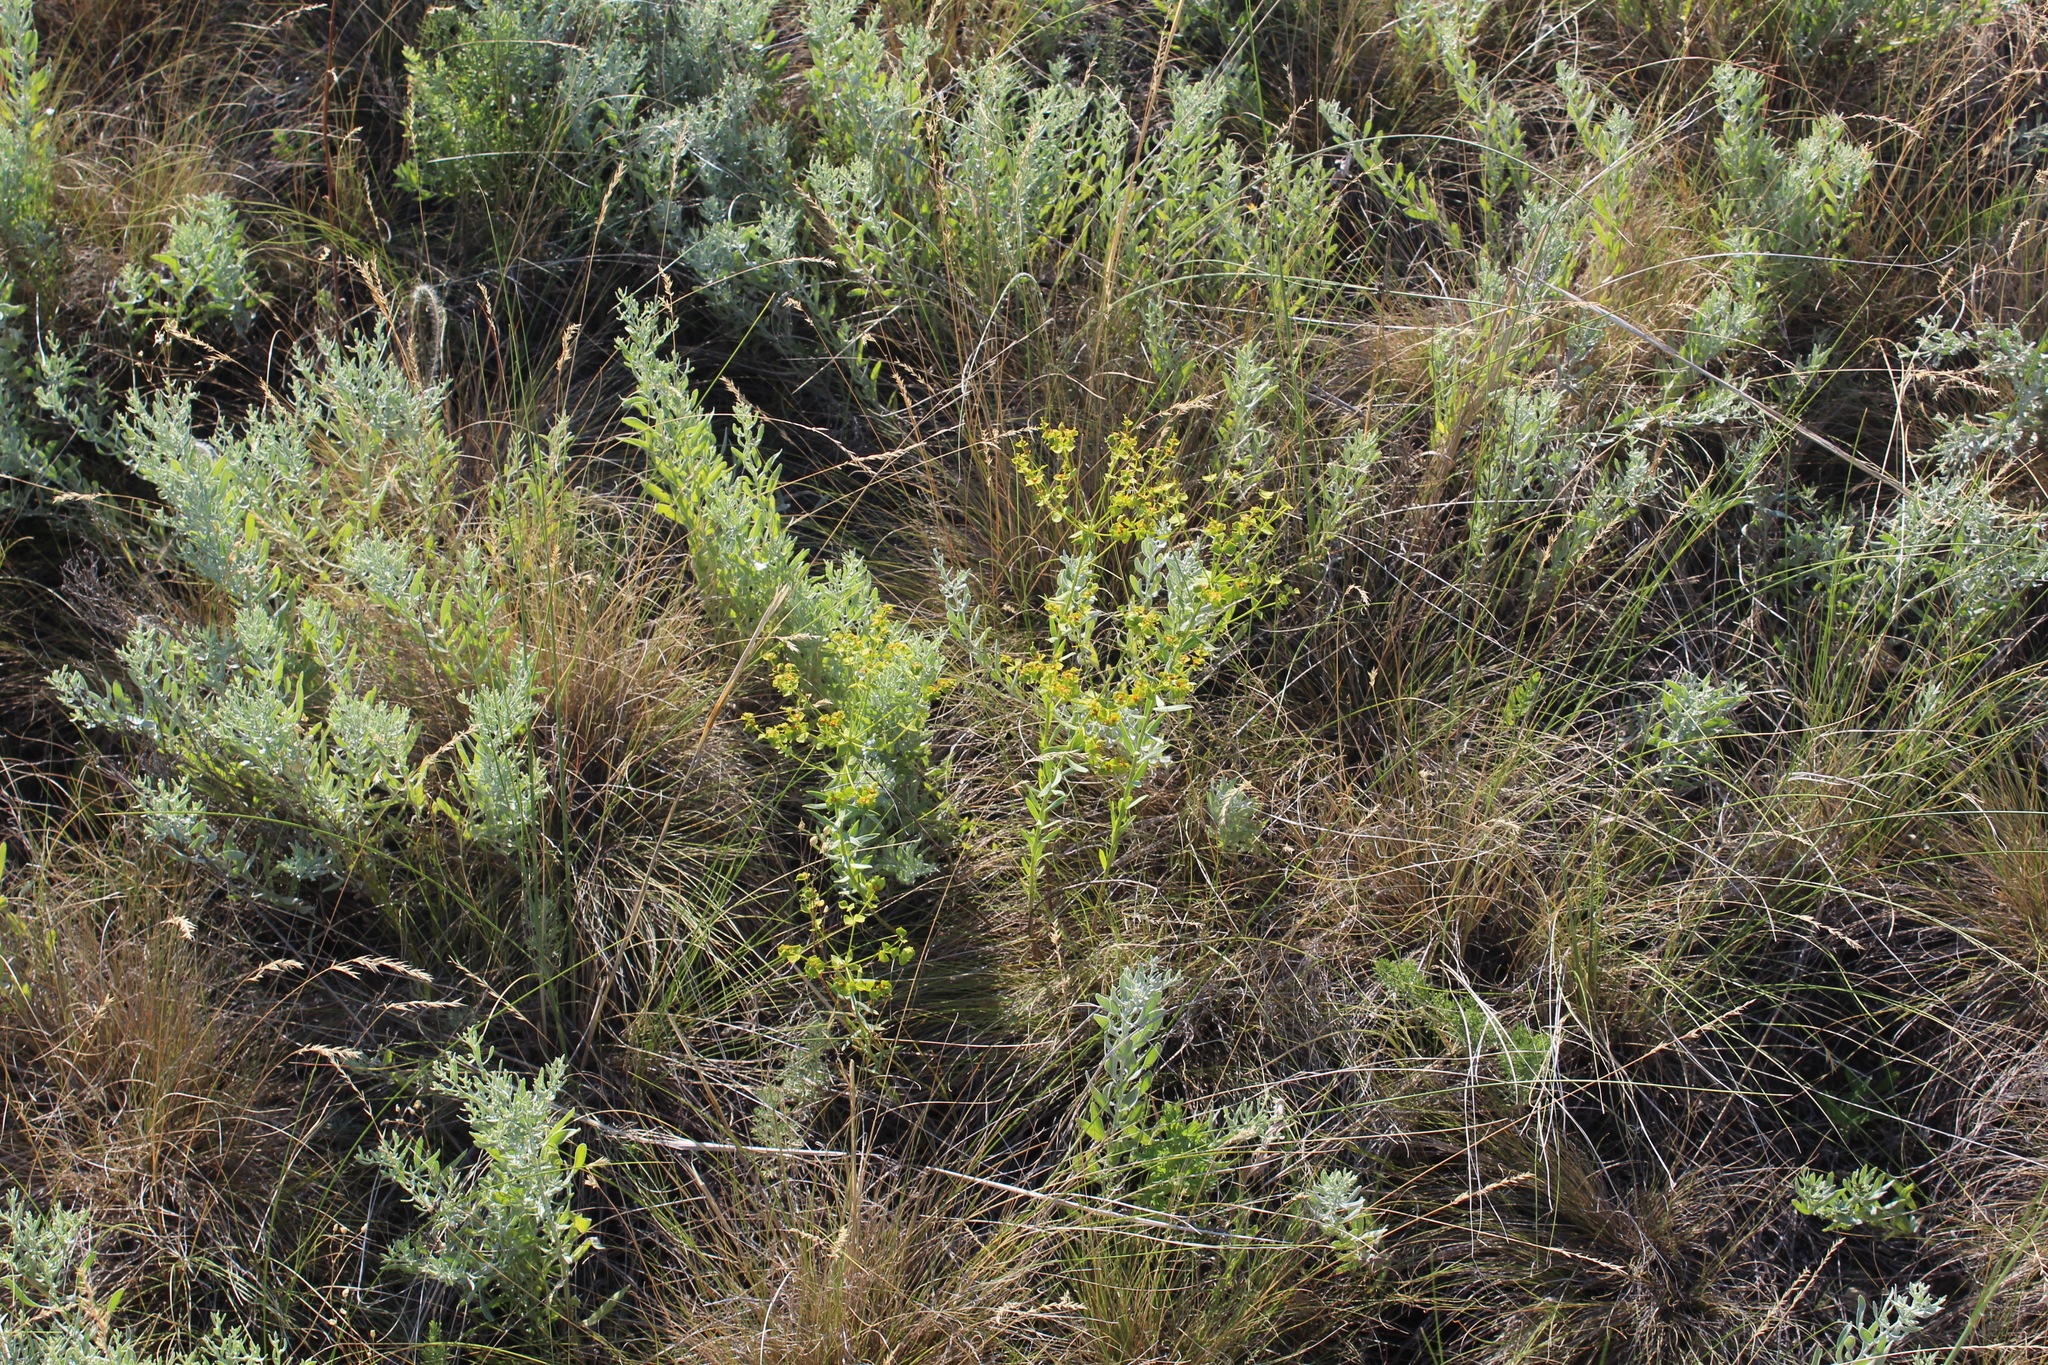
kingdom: Plantae
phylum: Tracheophyta
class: Magnoliopsida
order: Malpighiales
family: Euphorbiaceae
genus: Euphorbia
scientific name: Euphorbia seguieriana
